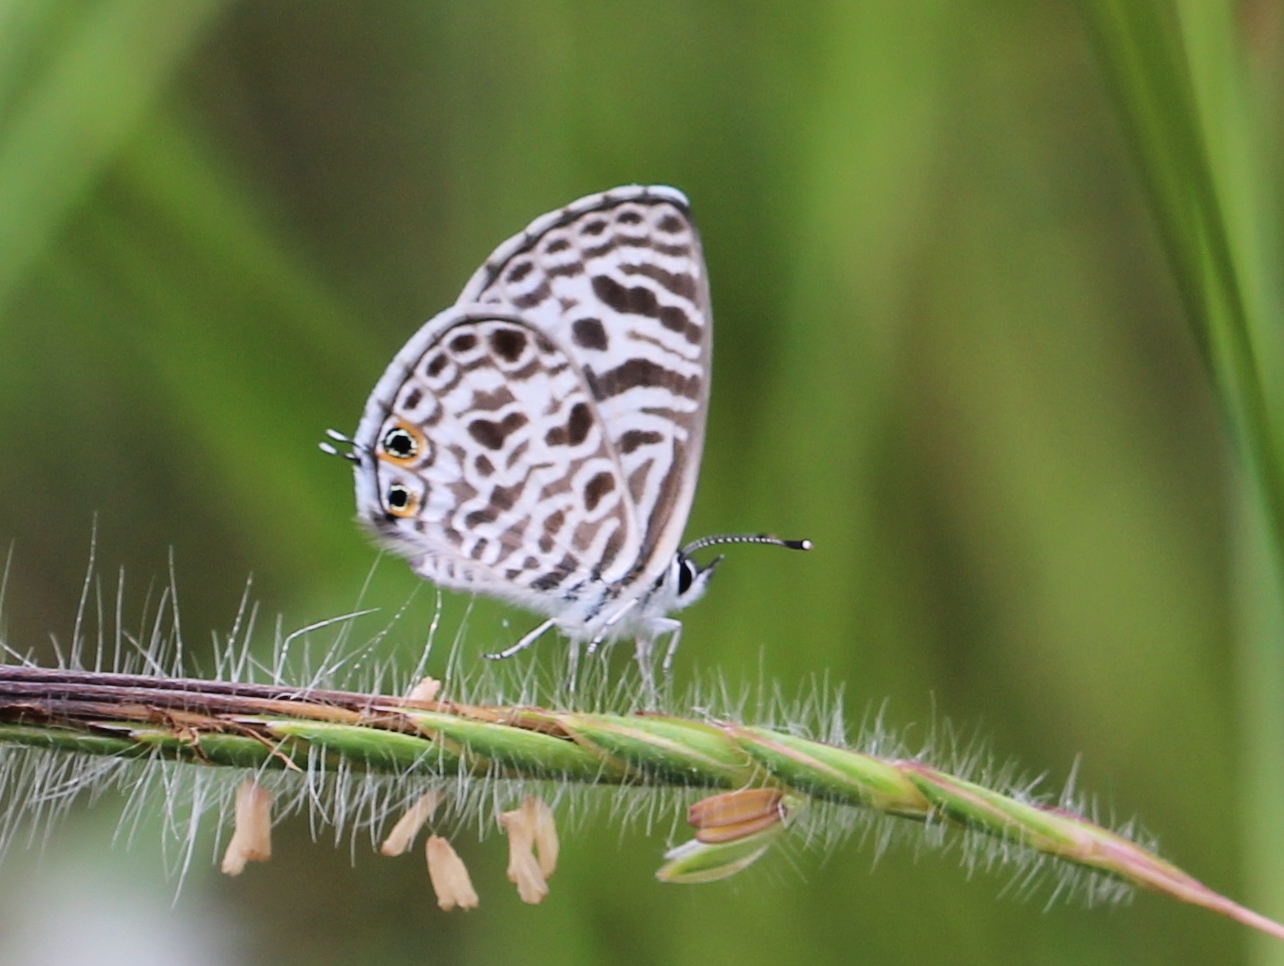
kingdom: Animalia
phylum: Arthropoda
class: Insecta
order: Lepidoptera
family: Lycaenidae
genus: Leptotes
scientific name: Leptotes plinius
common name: Zebra blue
